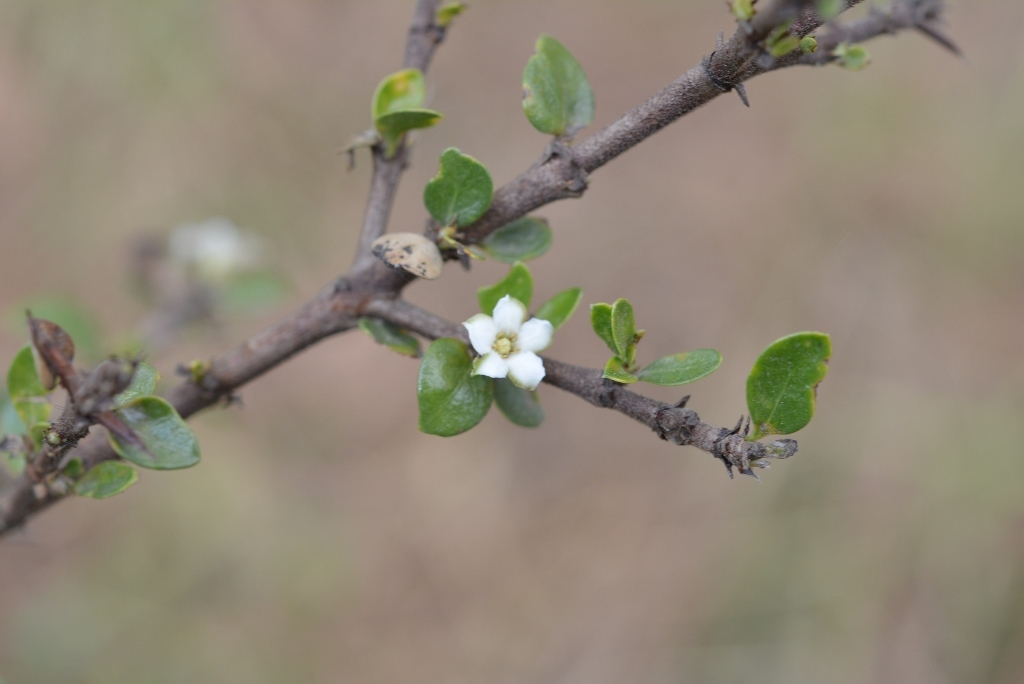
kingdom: Plantae
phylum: Tracheophyta
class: Magnoliopsida
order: Gentianales
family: Rubiaceae
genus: Randia
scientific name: Randia chiapensis
